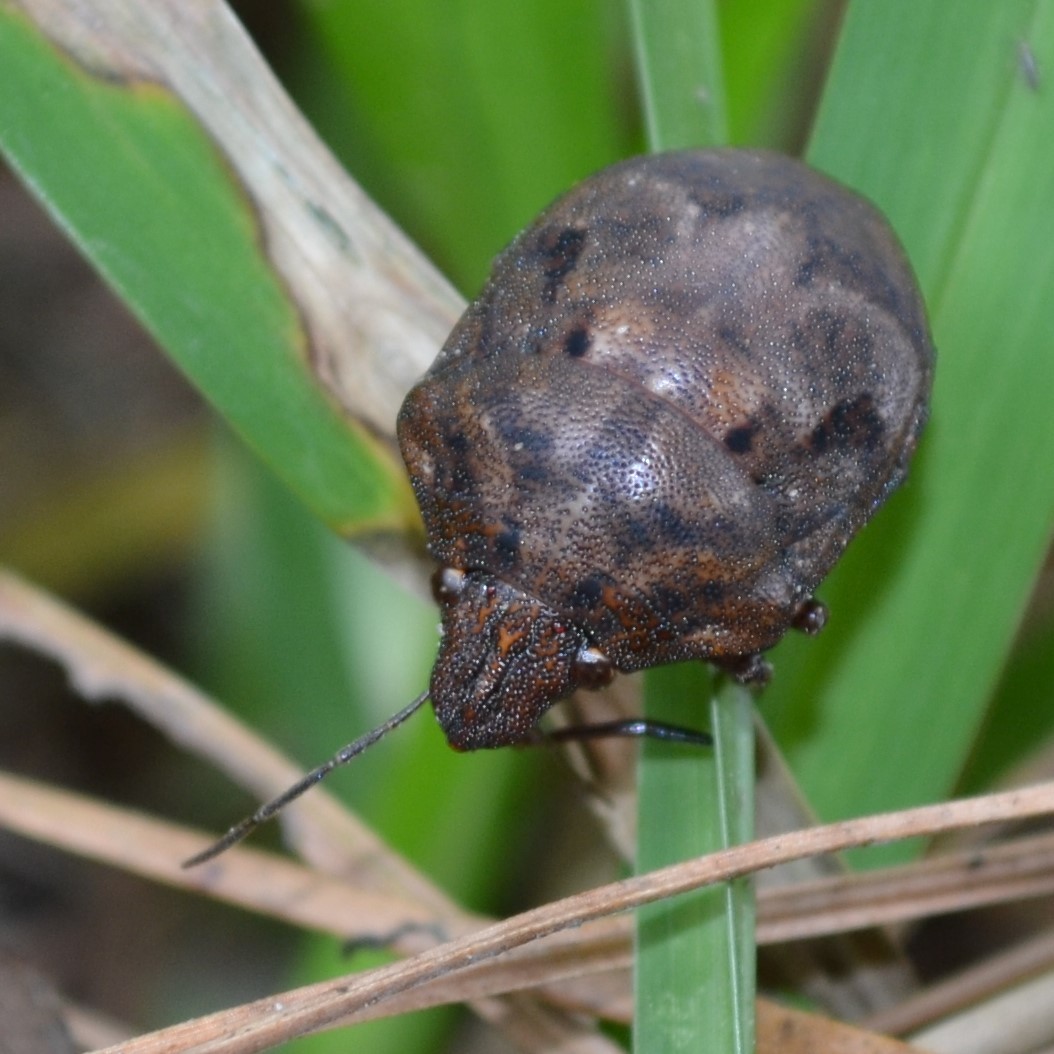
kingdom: Animalia
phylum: Arthropoda
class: Insecta
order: Hemiptera
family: Scutelleridae
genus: Tetyra
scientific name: Tetyra bipunctata
